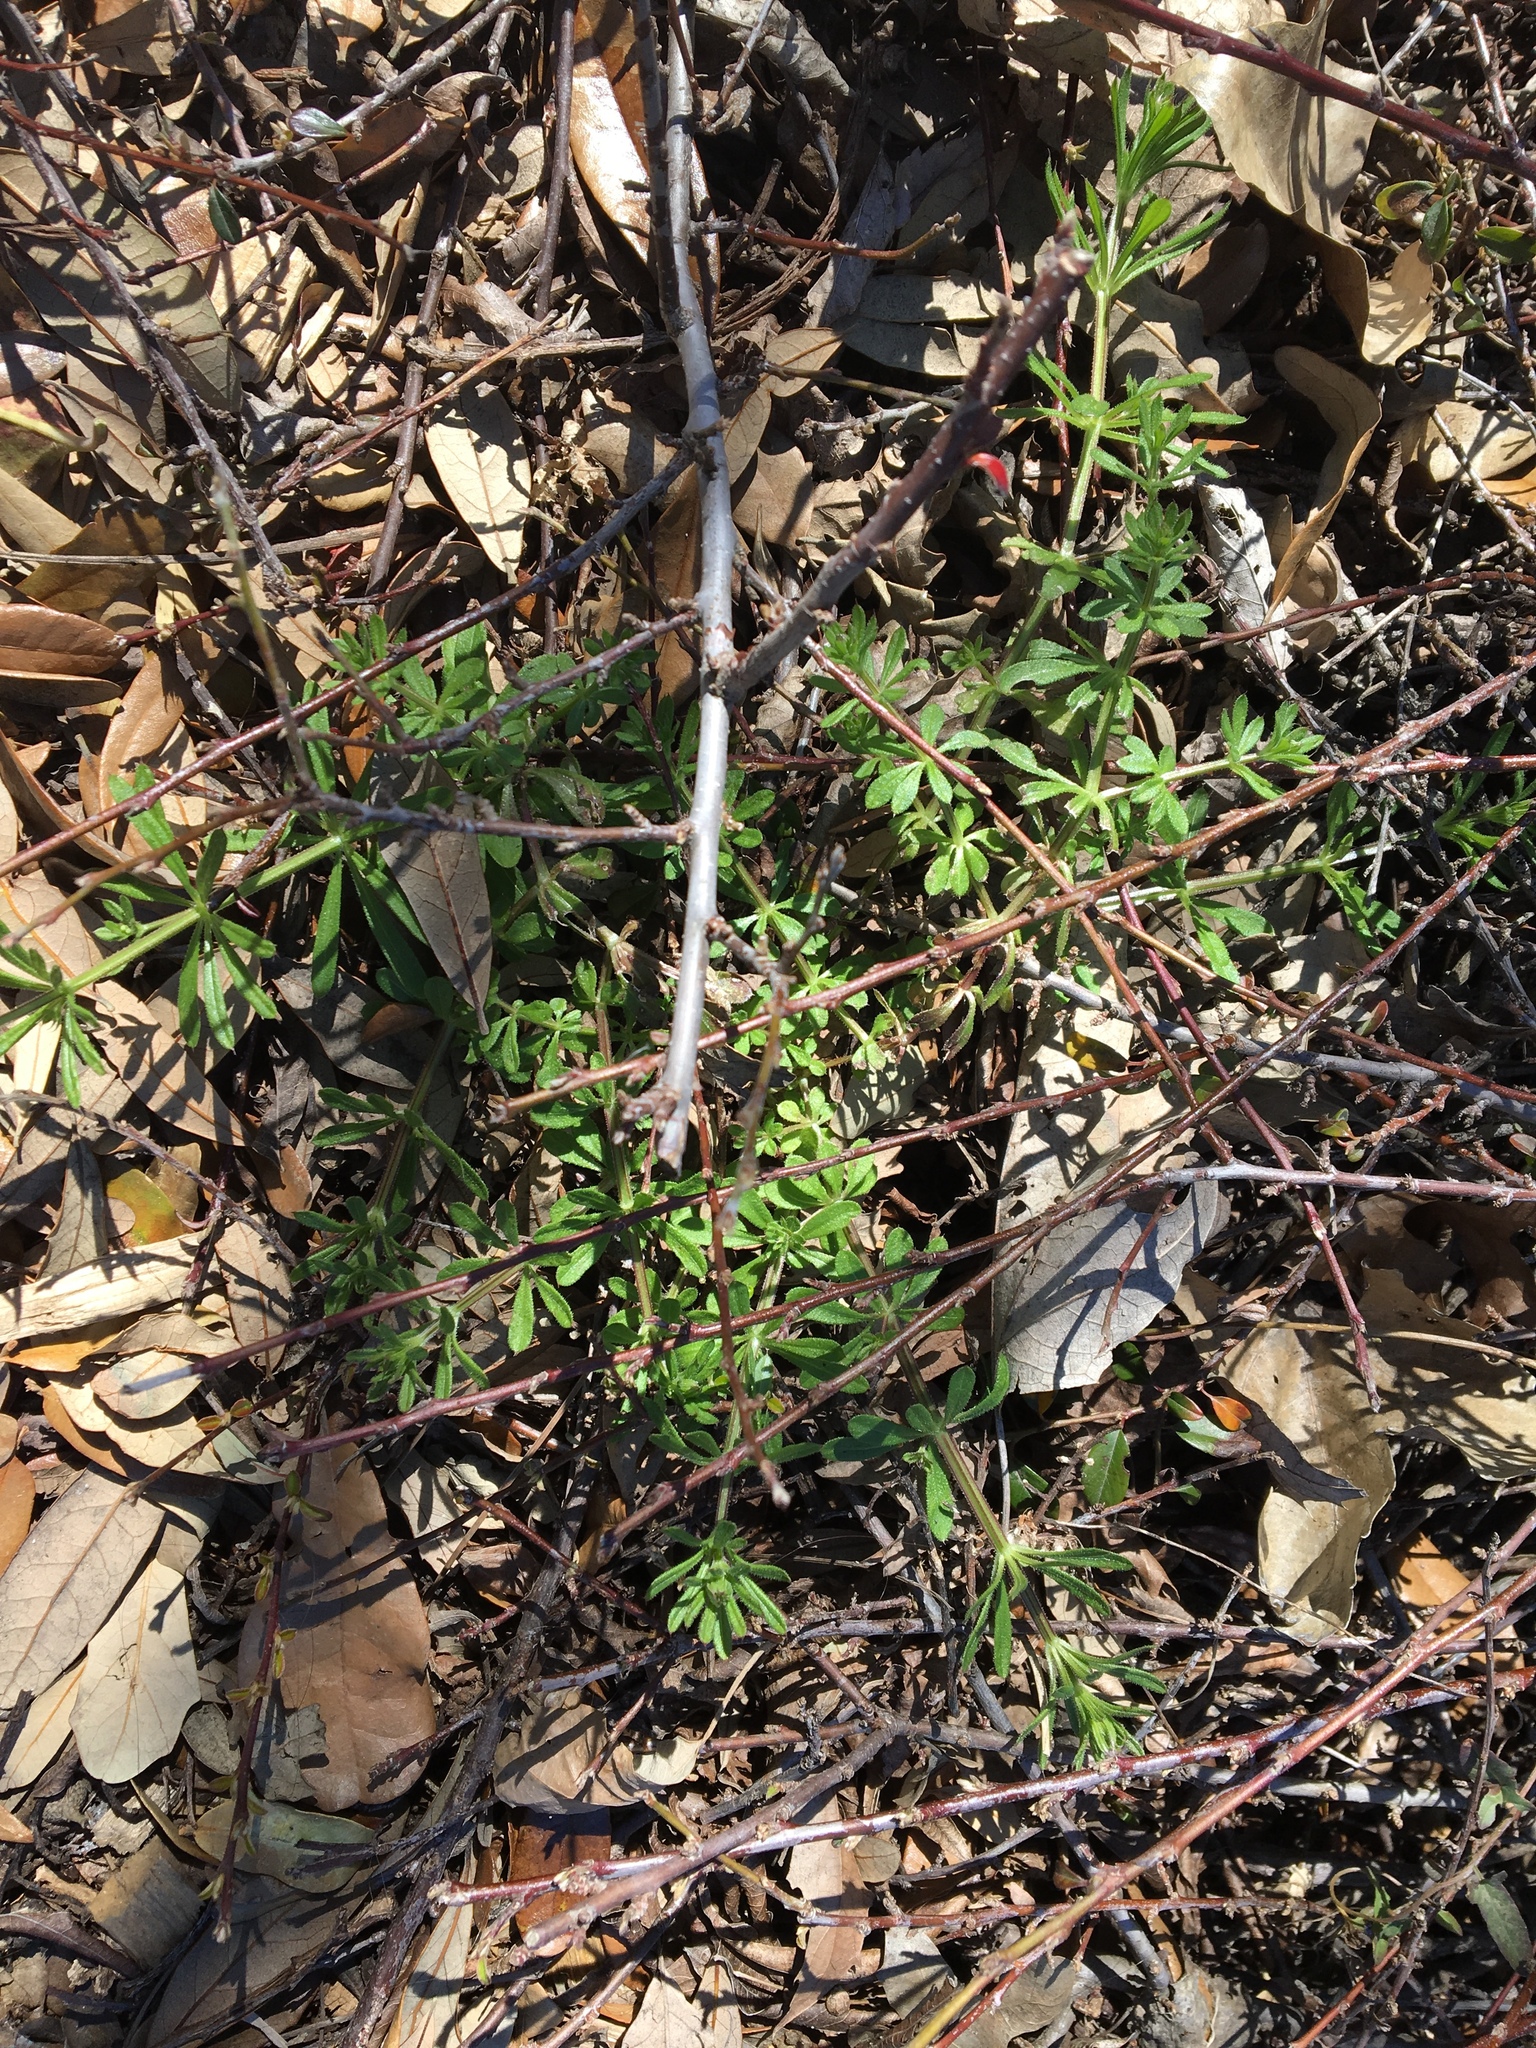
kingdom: Plantae
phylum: Tracheophyta
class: Magnoliopsida
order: Gentianales
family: Rubiaceae
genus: Galium
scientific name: Galium aparine
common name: Cleavers
